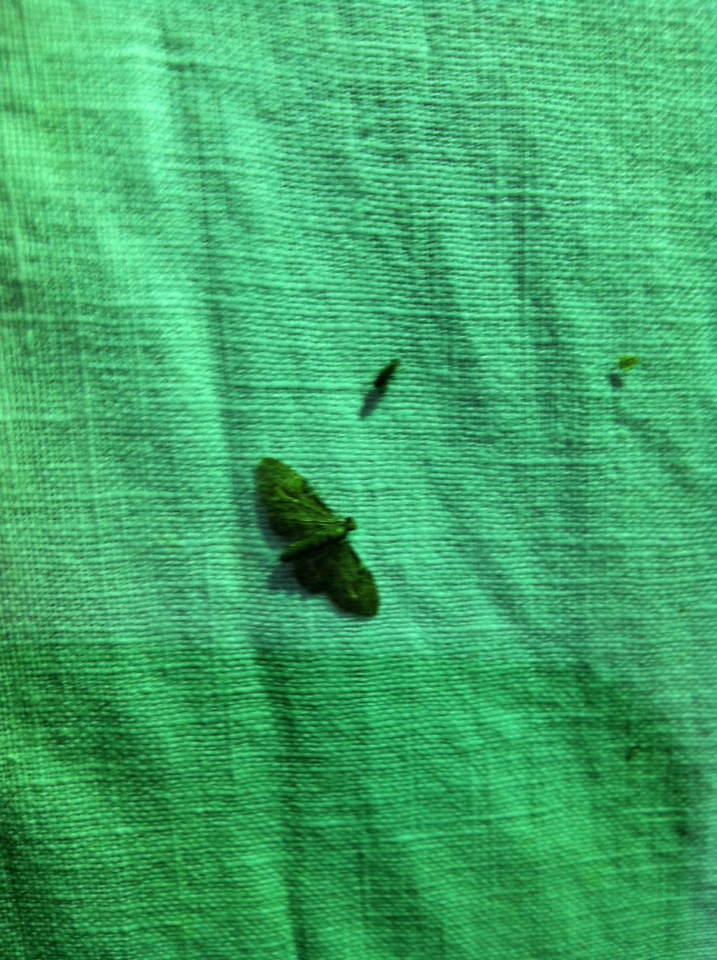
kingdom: Animalia
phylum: Arthropoda
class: Insecta
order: Lepidoptera
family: Geometridae
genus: Chloroclystis
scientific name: Chloroclystis insigillata
